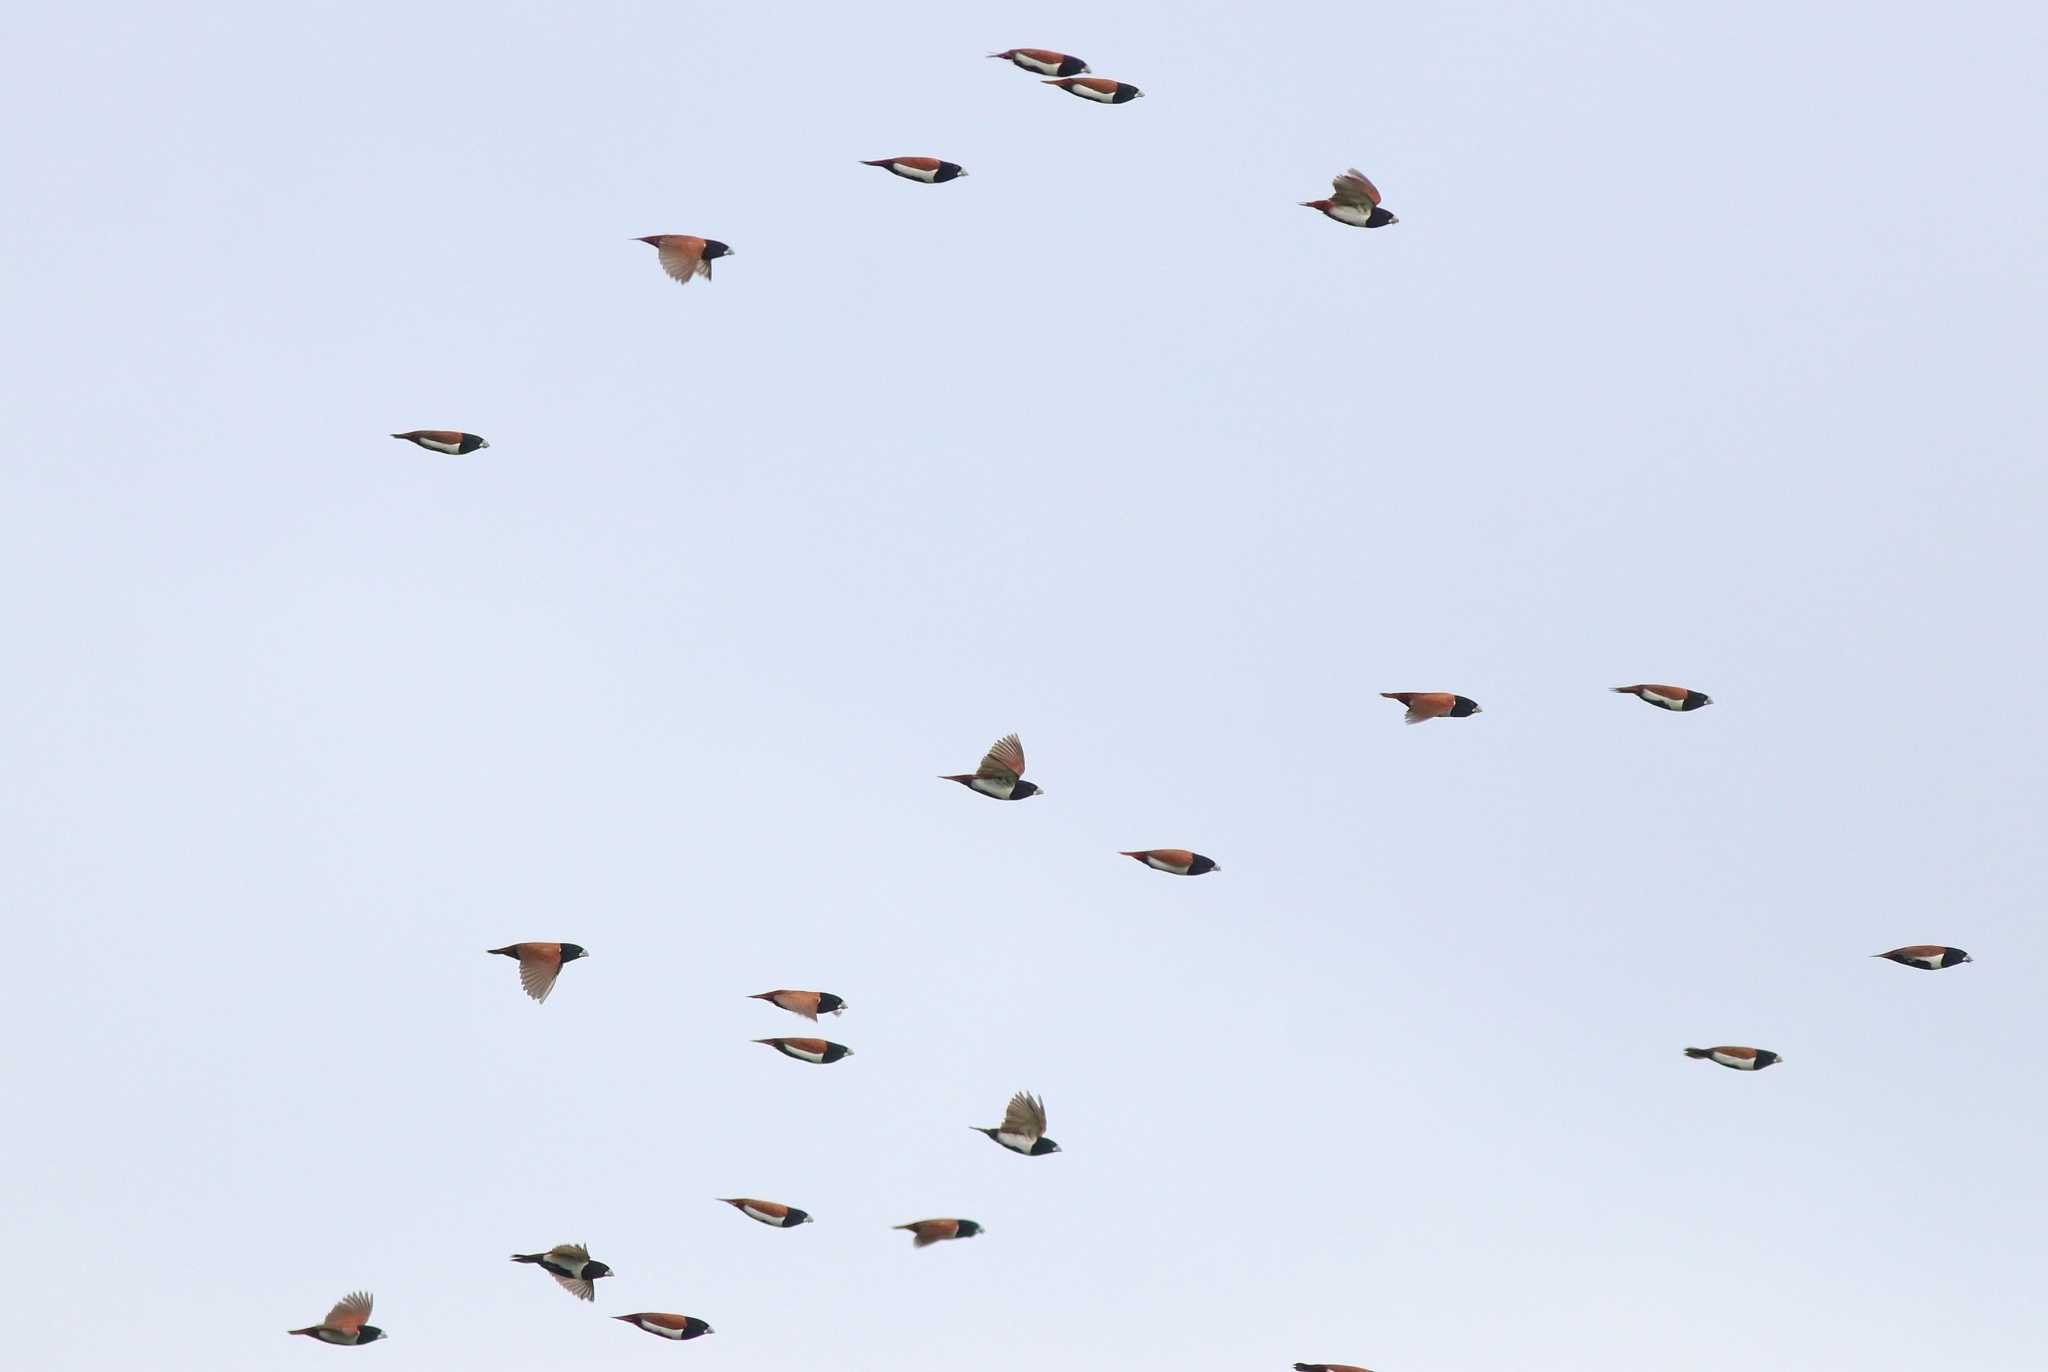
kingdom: Animalia
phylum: Chordata
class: Aves
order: Passeriformes
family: Estrildidae
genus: Lonchura
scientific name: Lonchura malacca
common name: Tricolored munia
